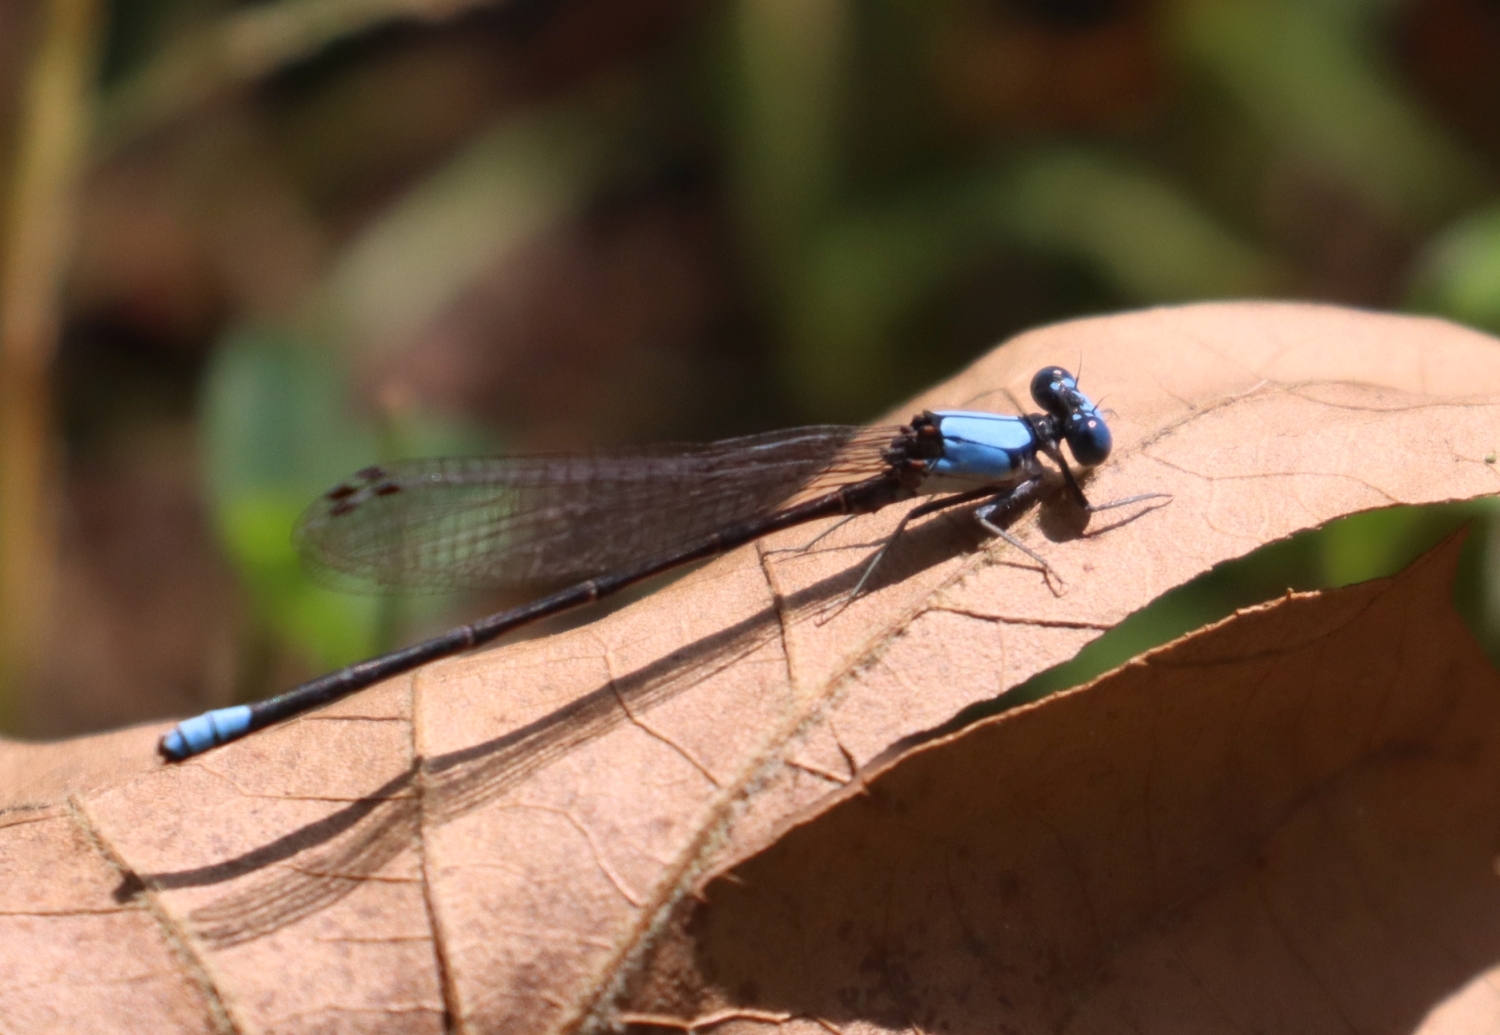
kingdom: Animalia
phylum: Arthropoda
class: Insecta
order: Odonata
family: Coenagrionidae
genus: Argia
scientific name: Argia apicalis
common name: Blue-fronted dancer
